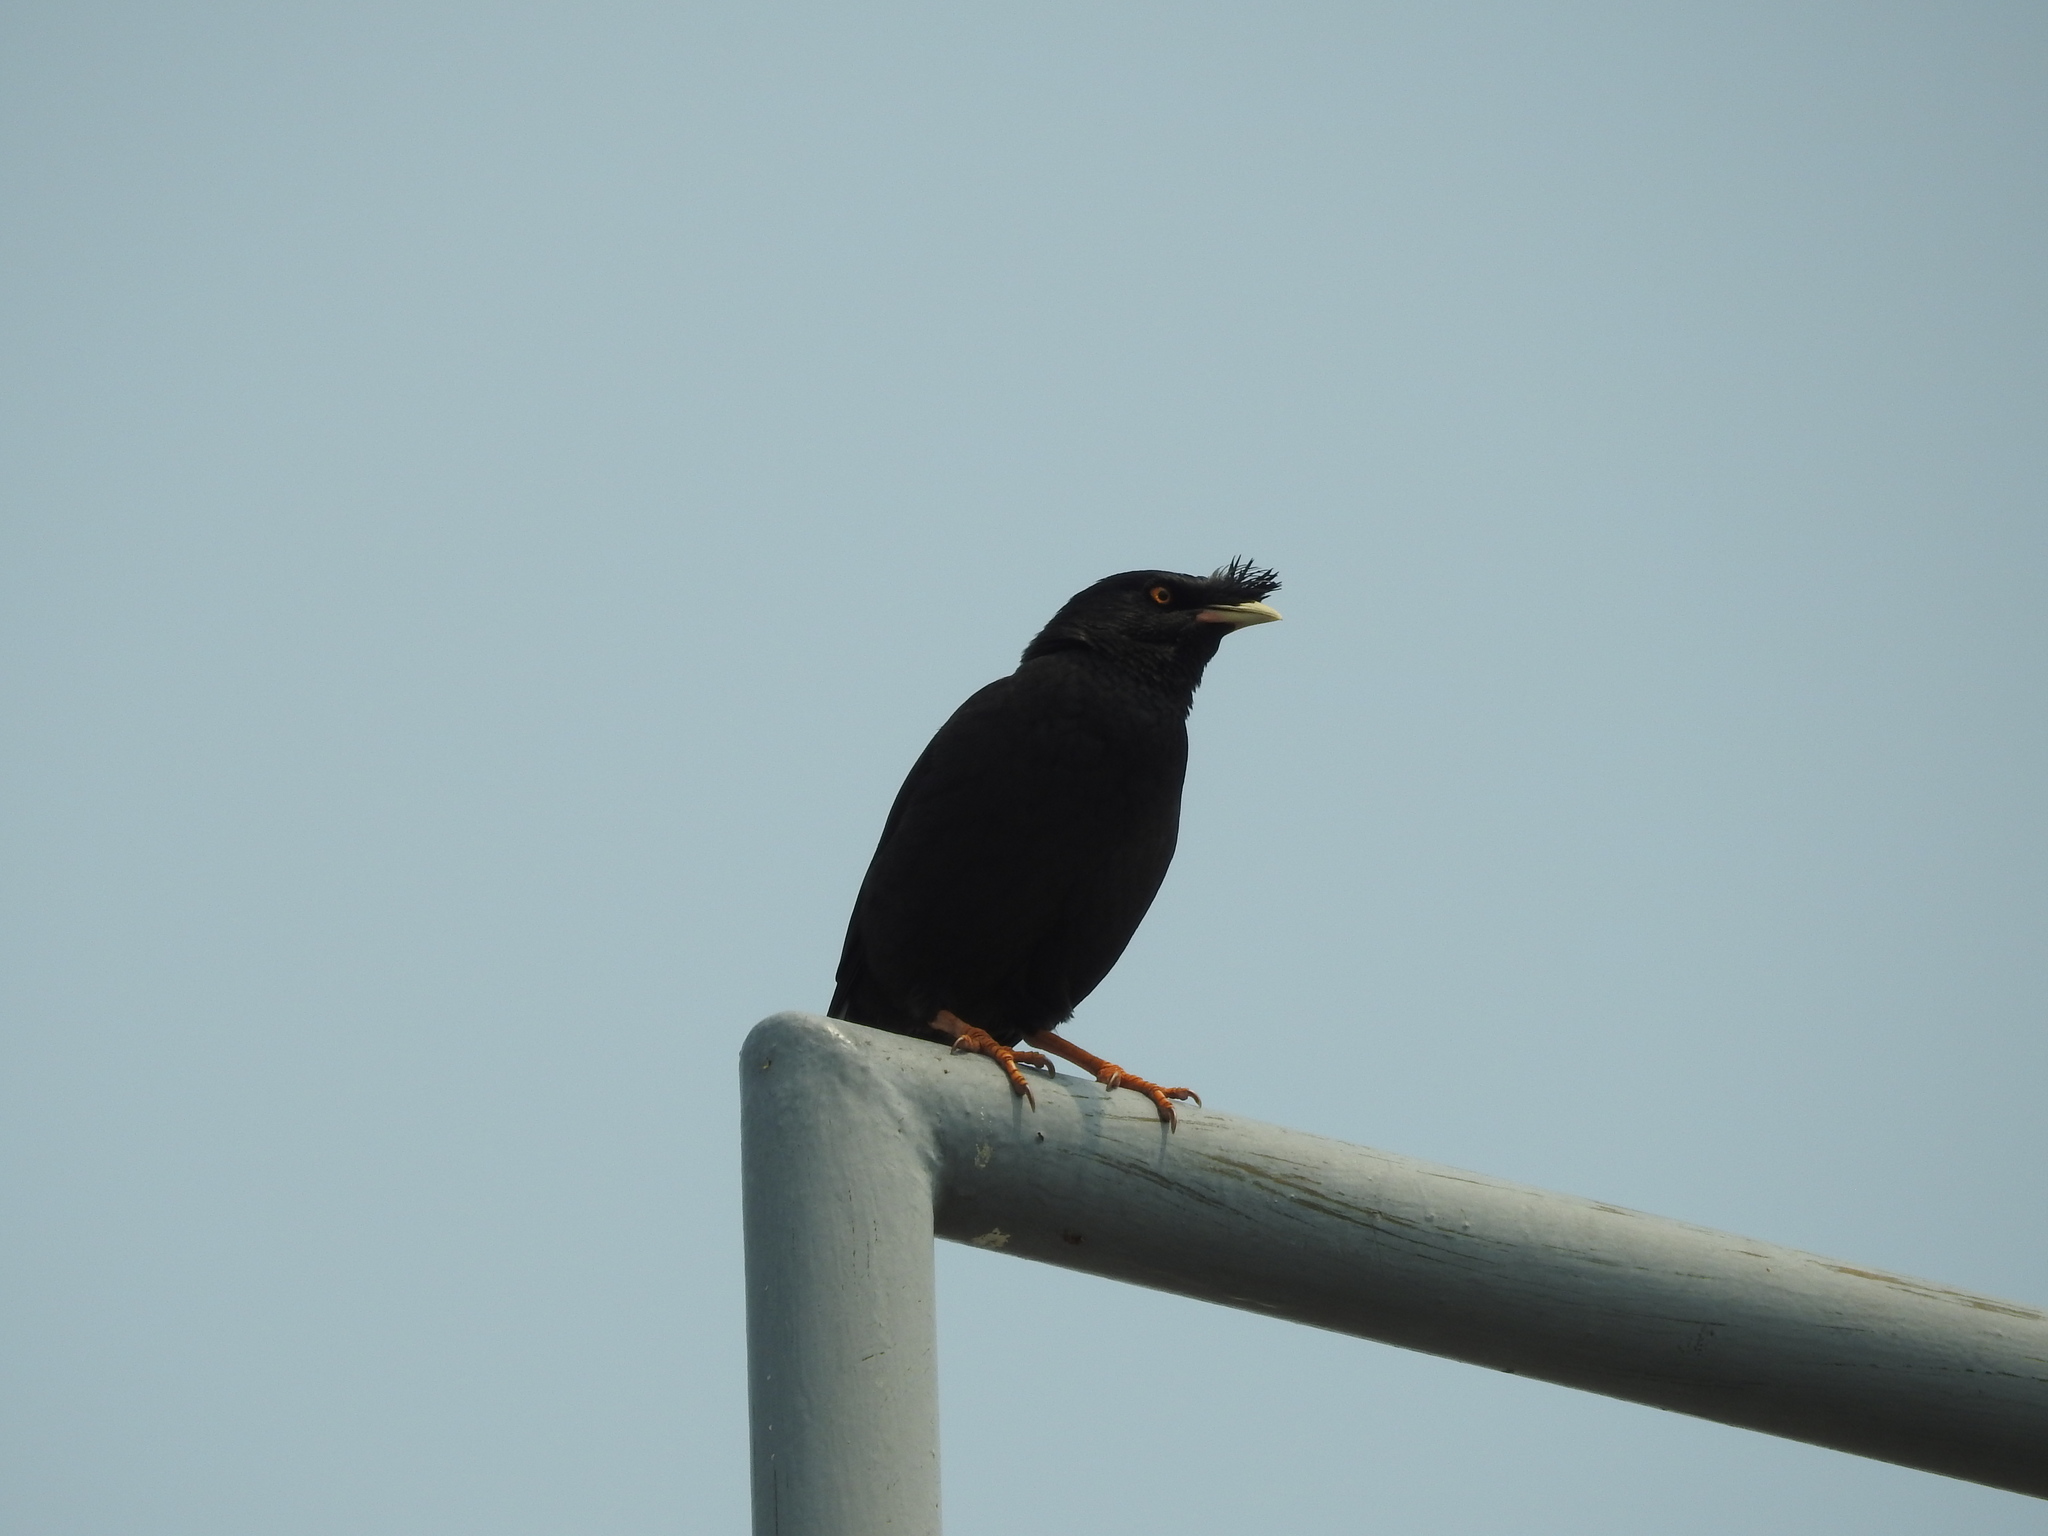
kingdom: Animalia
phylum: Chordata
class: Aves
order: Passeriformes
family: Sturnidae
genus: Acridotheres
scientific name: Acridotheres cristatellus
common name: Crested myna
